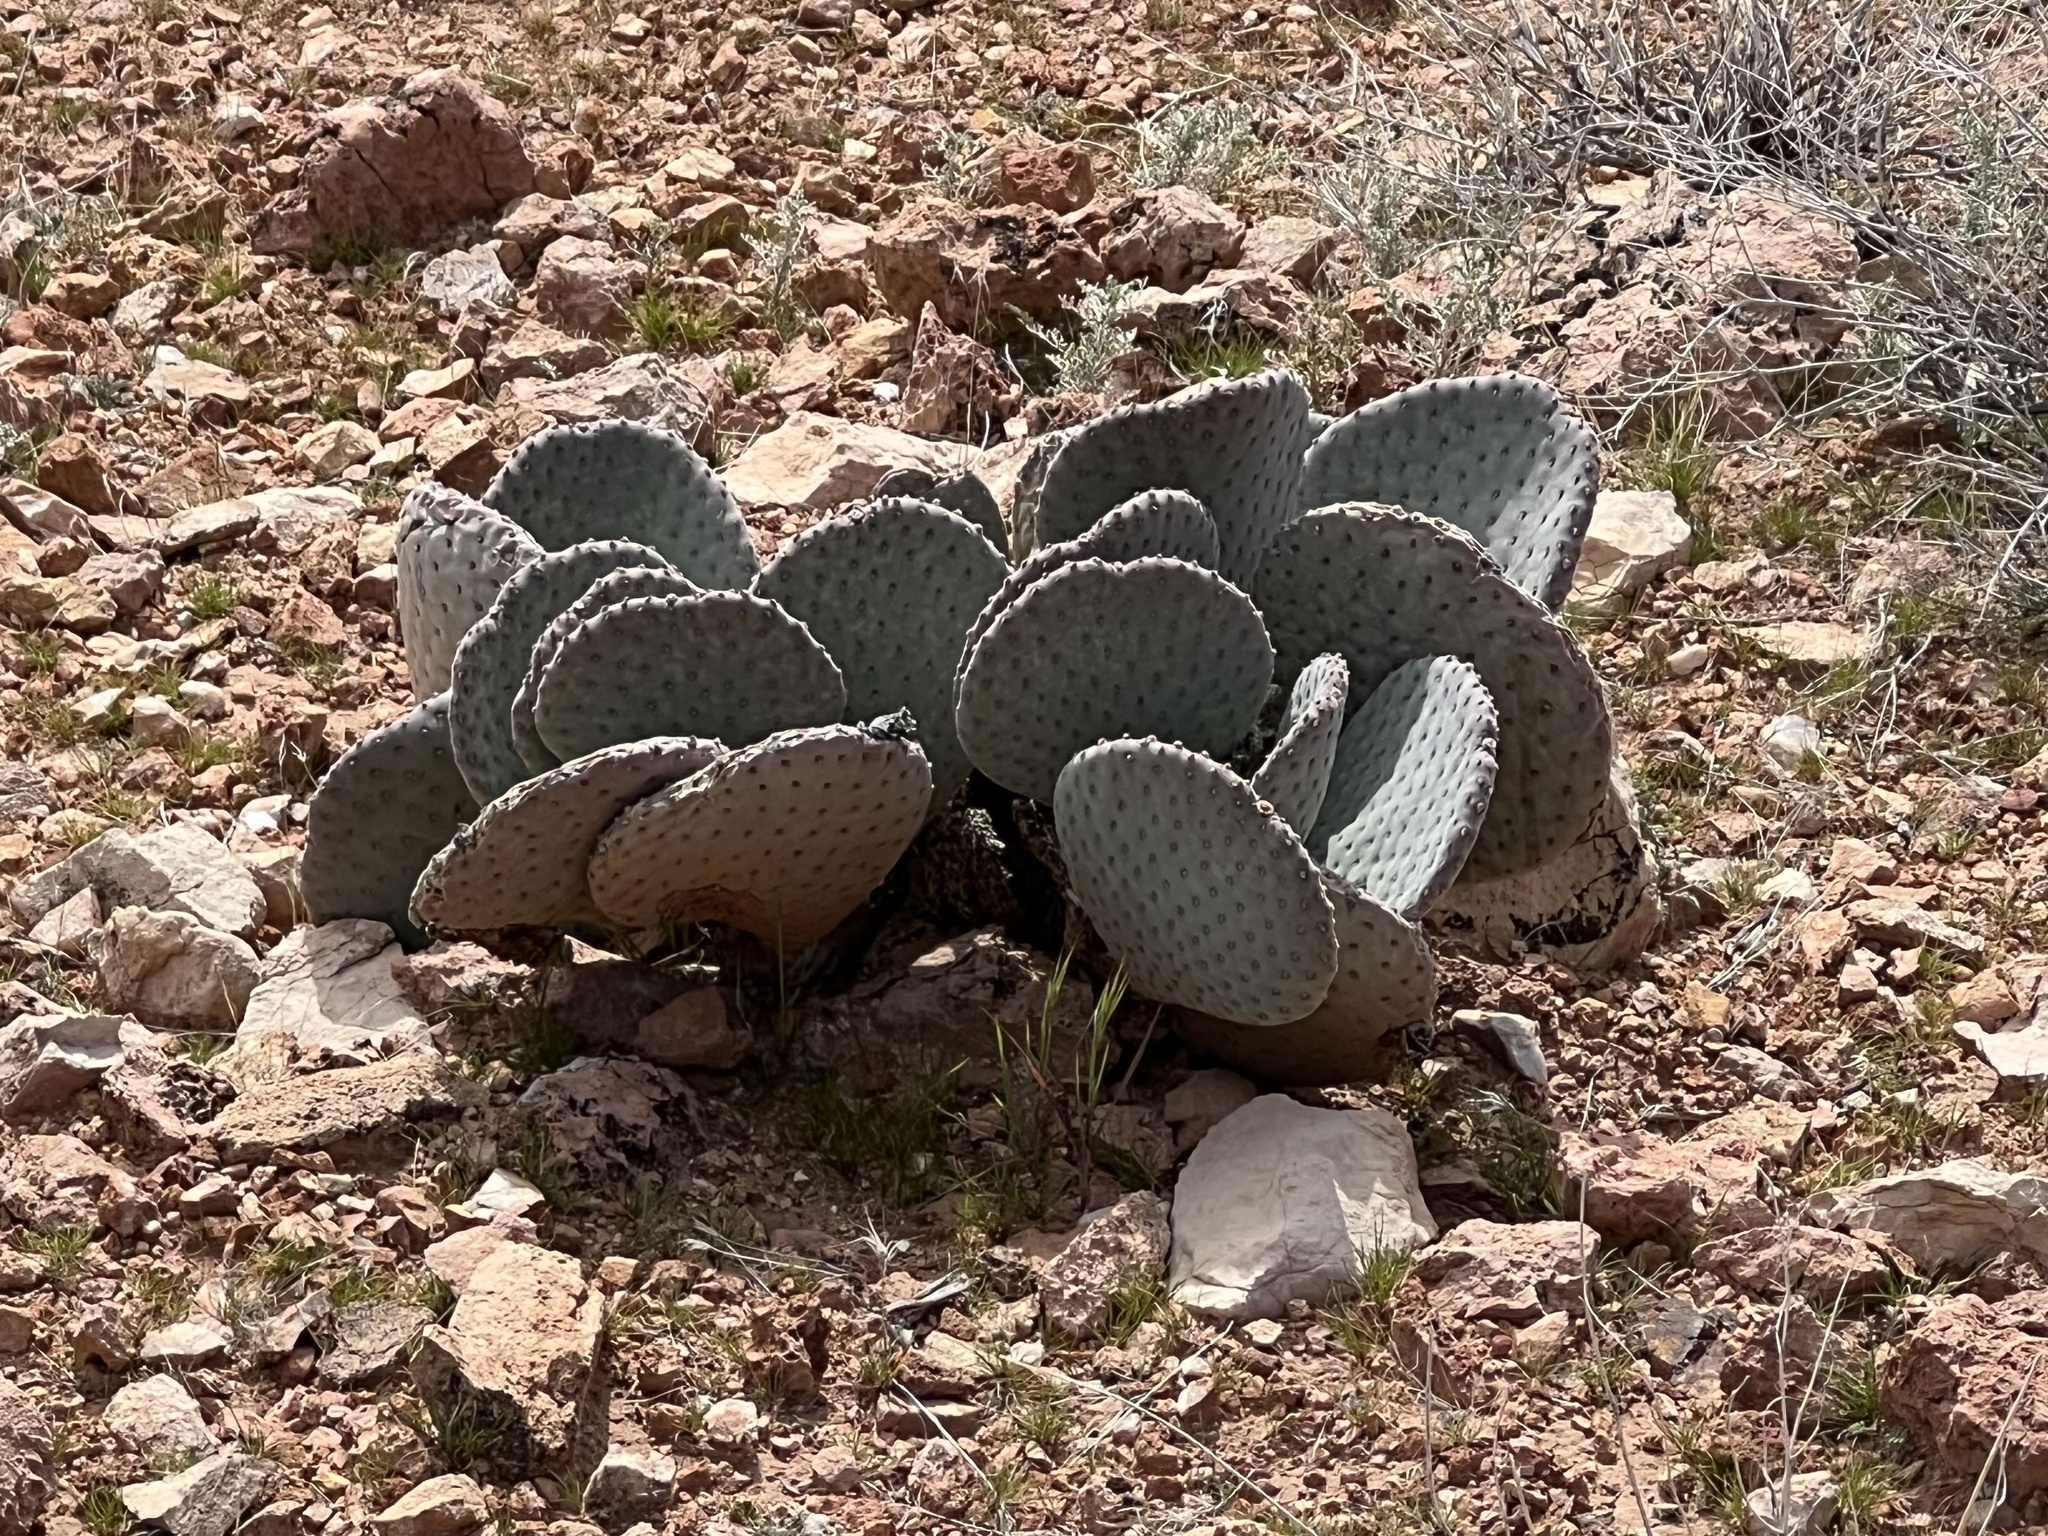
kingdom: Plantae
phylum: Tracheophyta
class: Magnoliopsida
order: Caryophyllales
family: Cactaceae
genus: Opuntia
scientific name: Opuntia basilaris
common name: Beavertail prickly-pear
